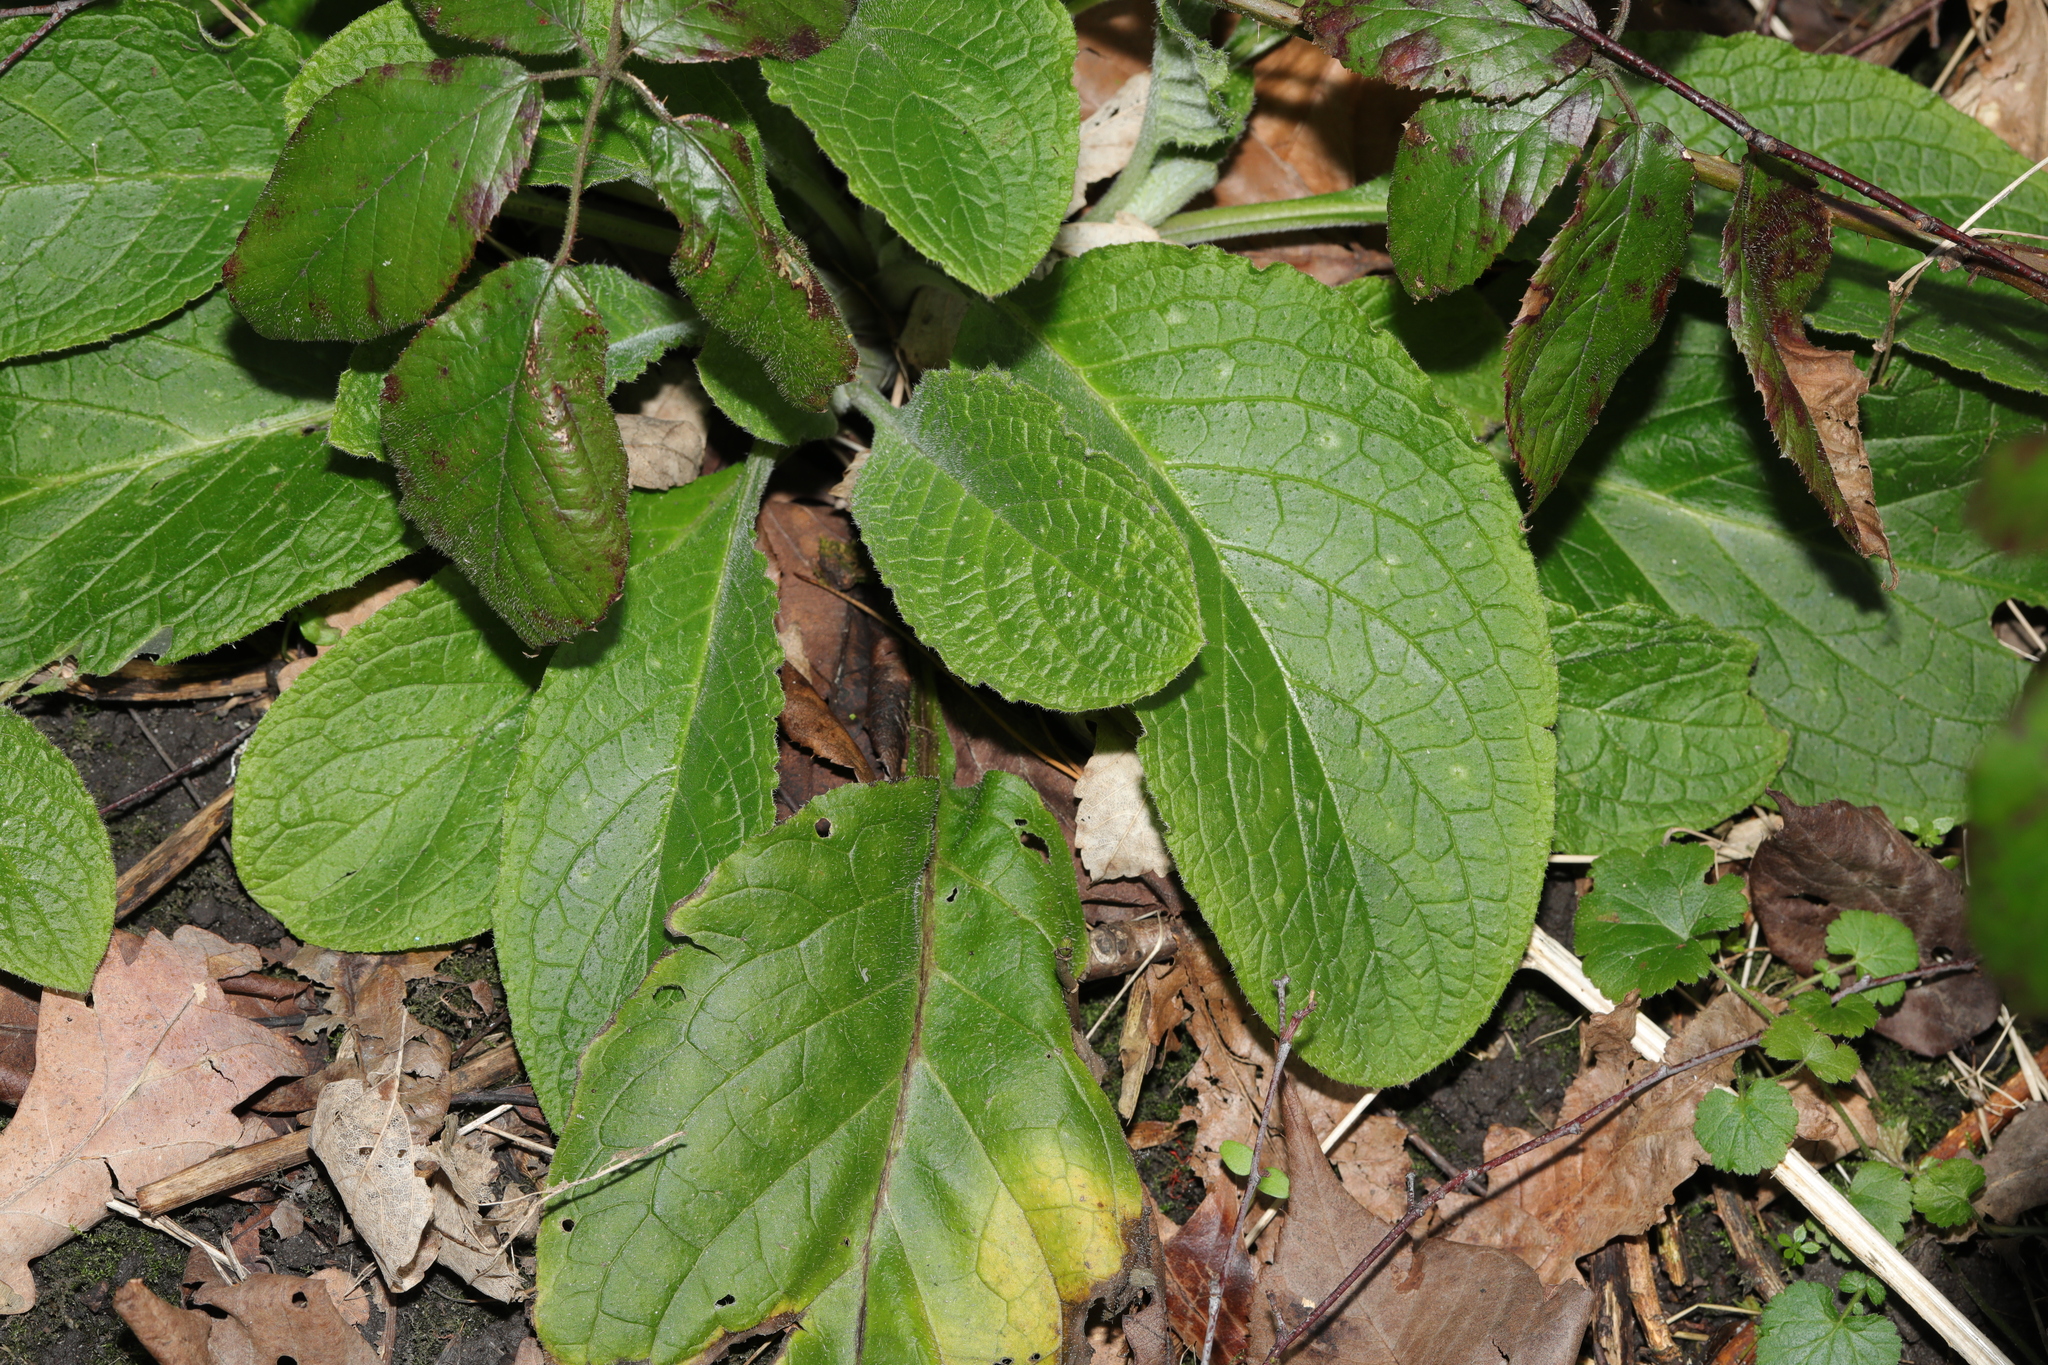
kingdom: Plantae
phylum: Tracheophyta
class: Magnoliopsida
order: Boraginales
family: Boraginaceae
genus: Pentaglottis
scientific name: Pentaglottis sempervirens
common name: Green alkanet
